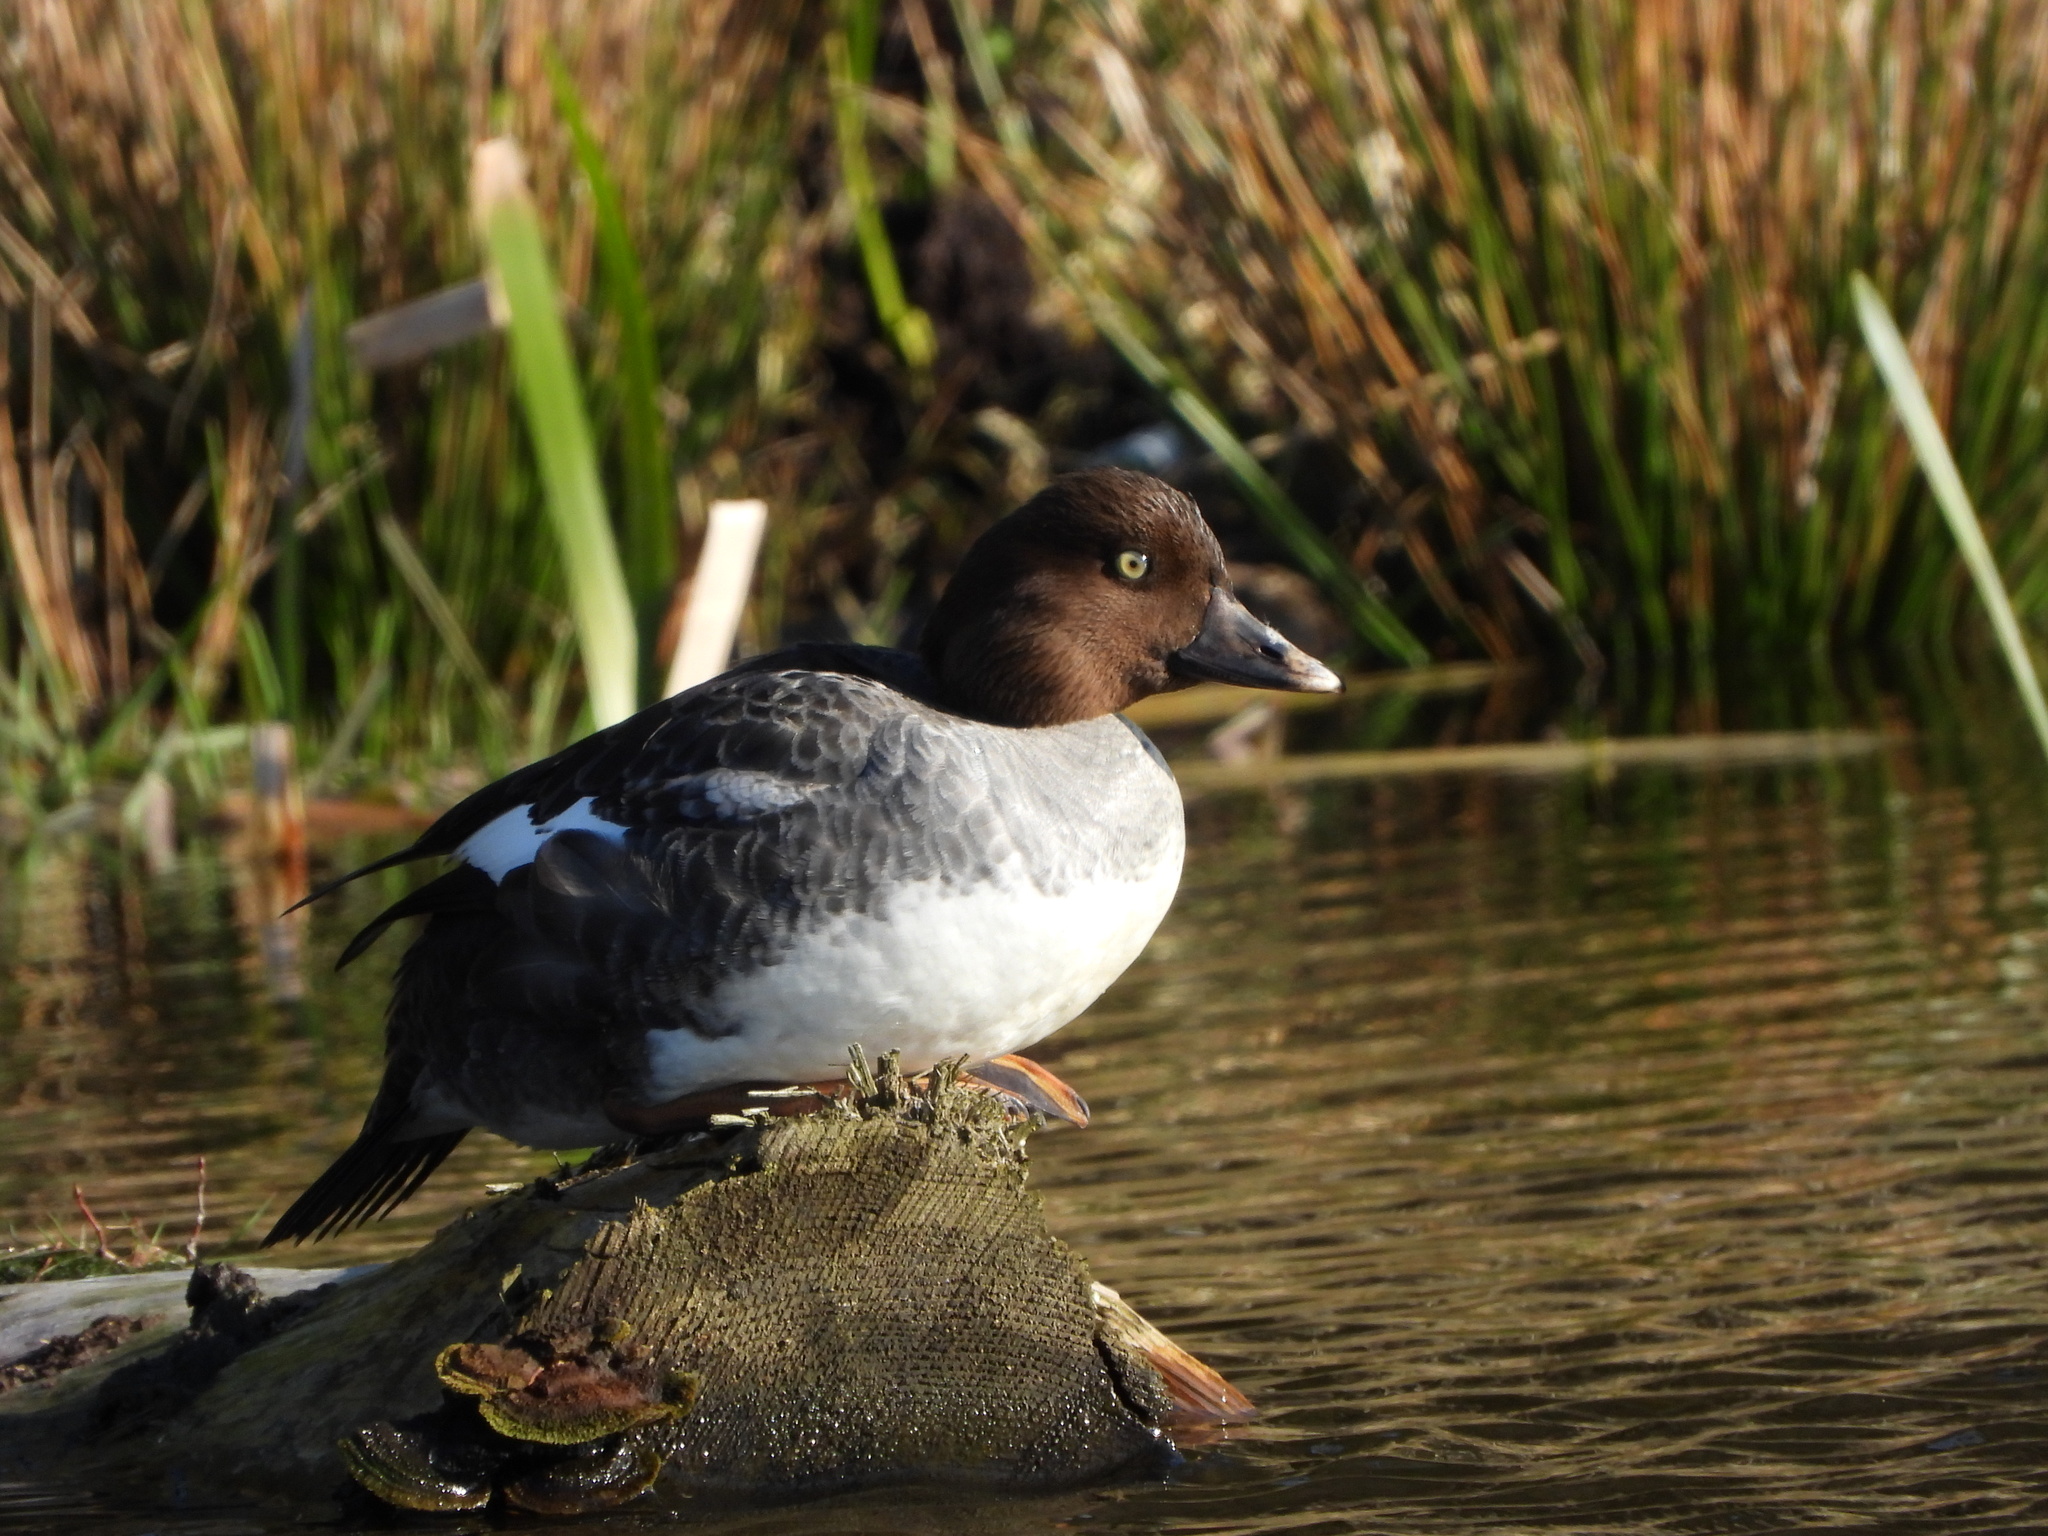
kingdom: Animalia
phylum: Chordata
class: Aves
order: Anseriformes
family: Anatidae
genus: Bucephala
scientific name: Bucephala clangula
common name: Common goldeneye
